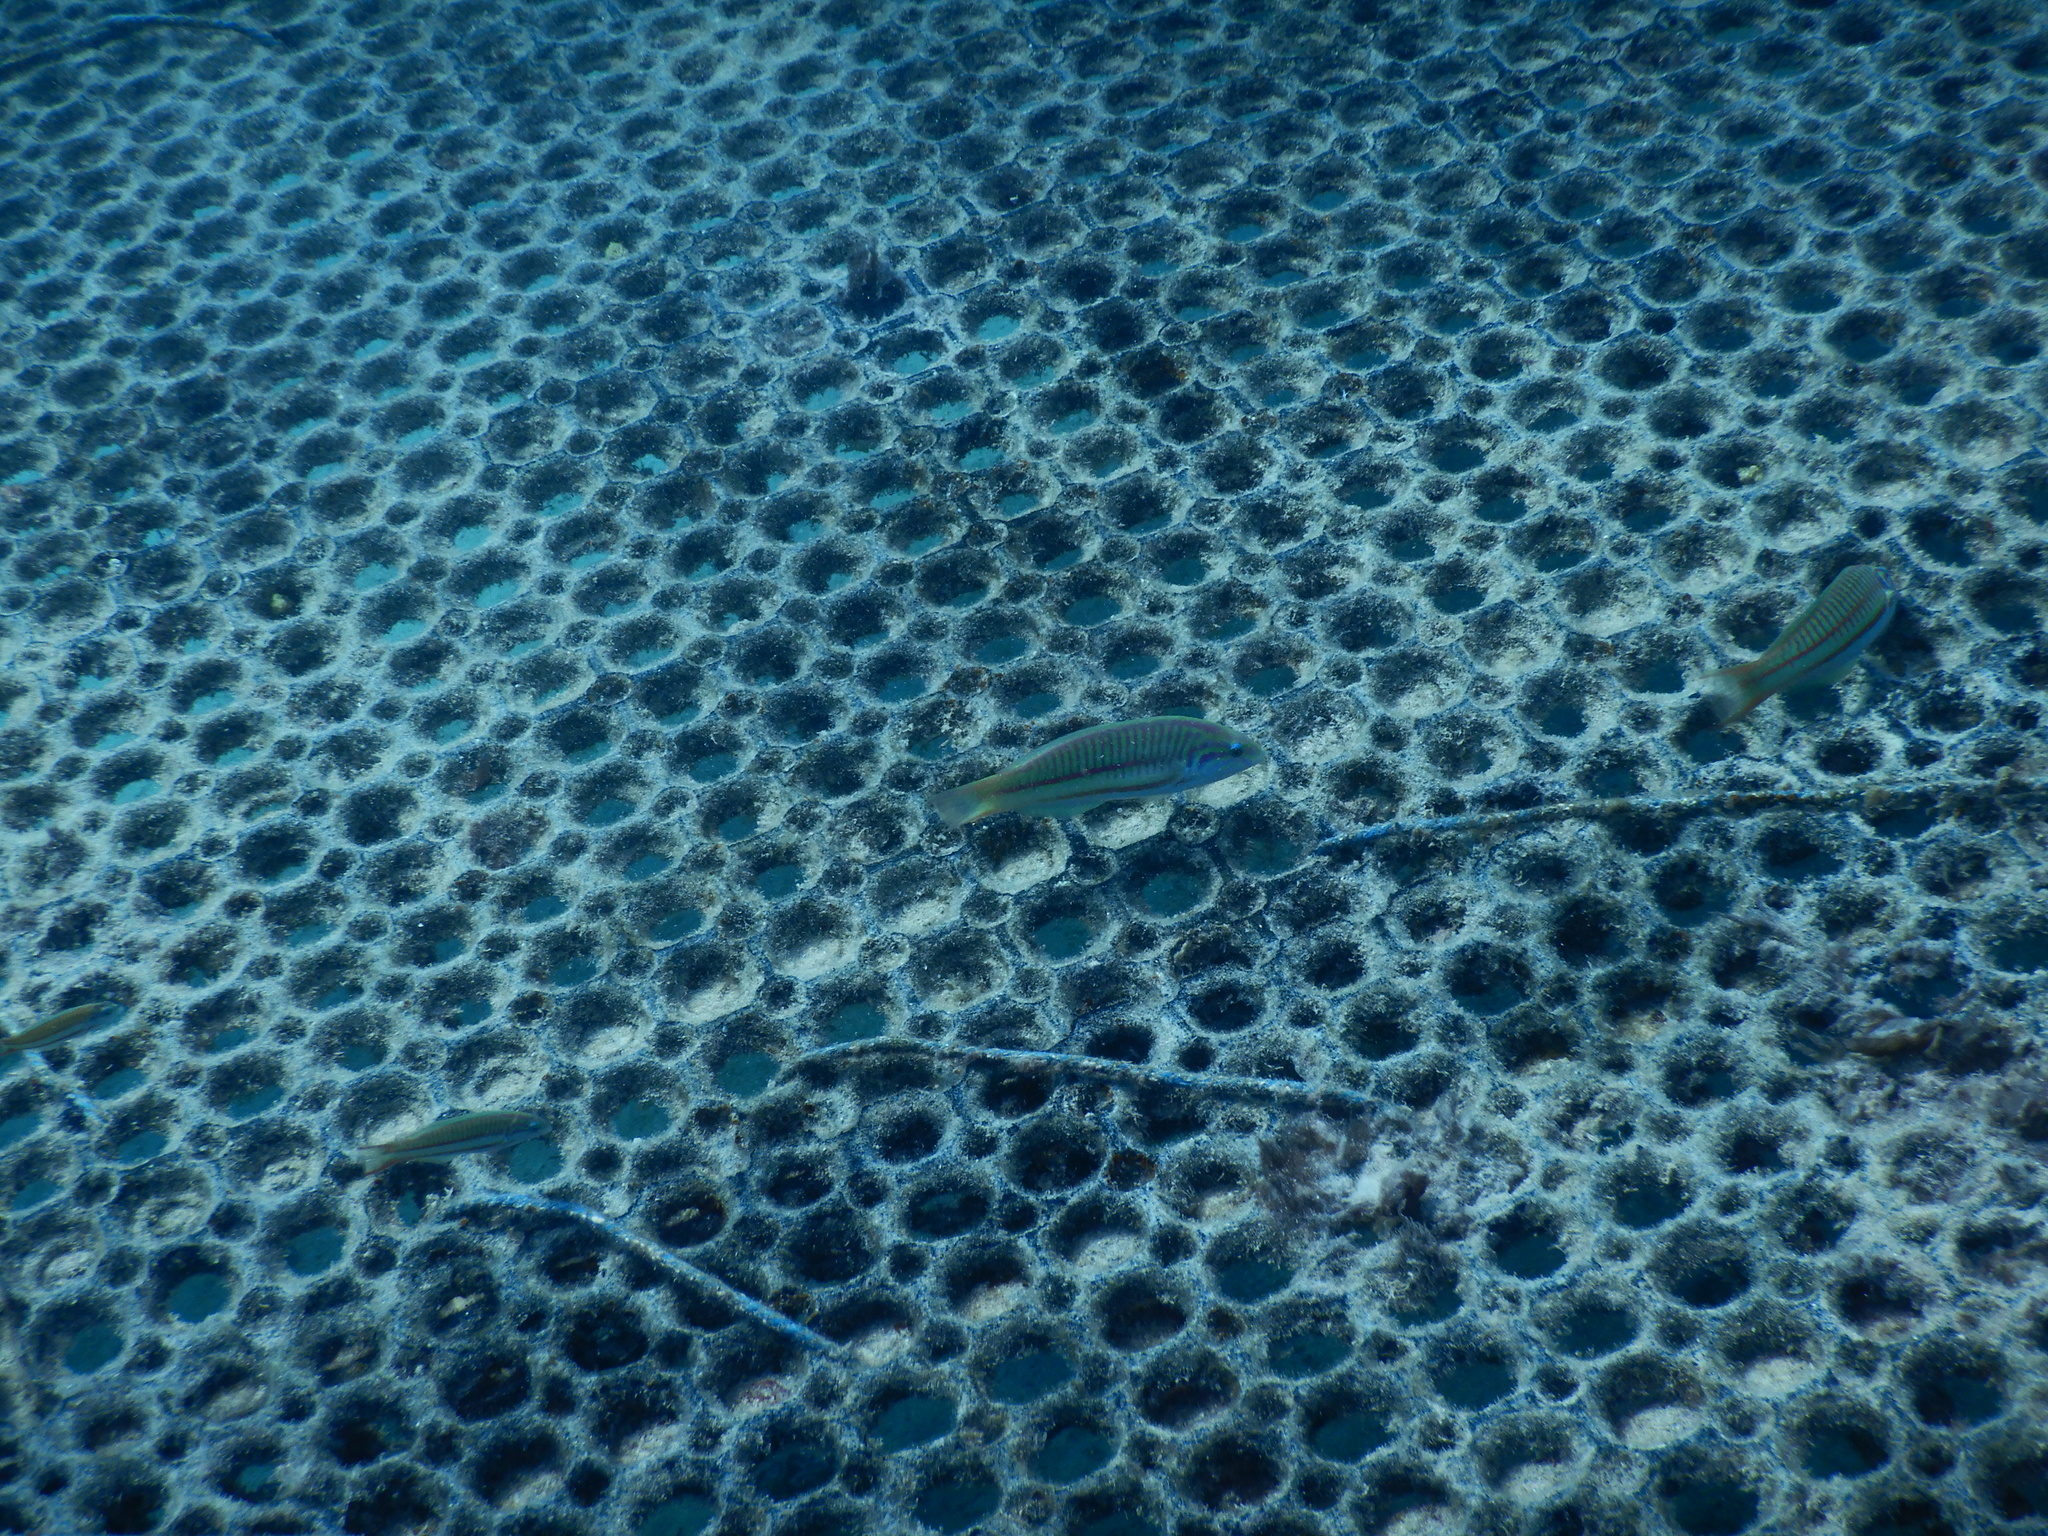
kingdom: Animalia
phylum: Chordata
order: Perciformes
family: Labridae
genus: Thalassoma
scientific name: Thalassoma rueppellii
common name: Klunzinger's wrasse
